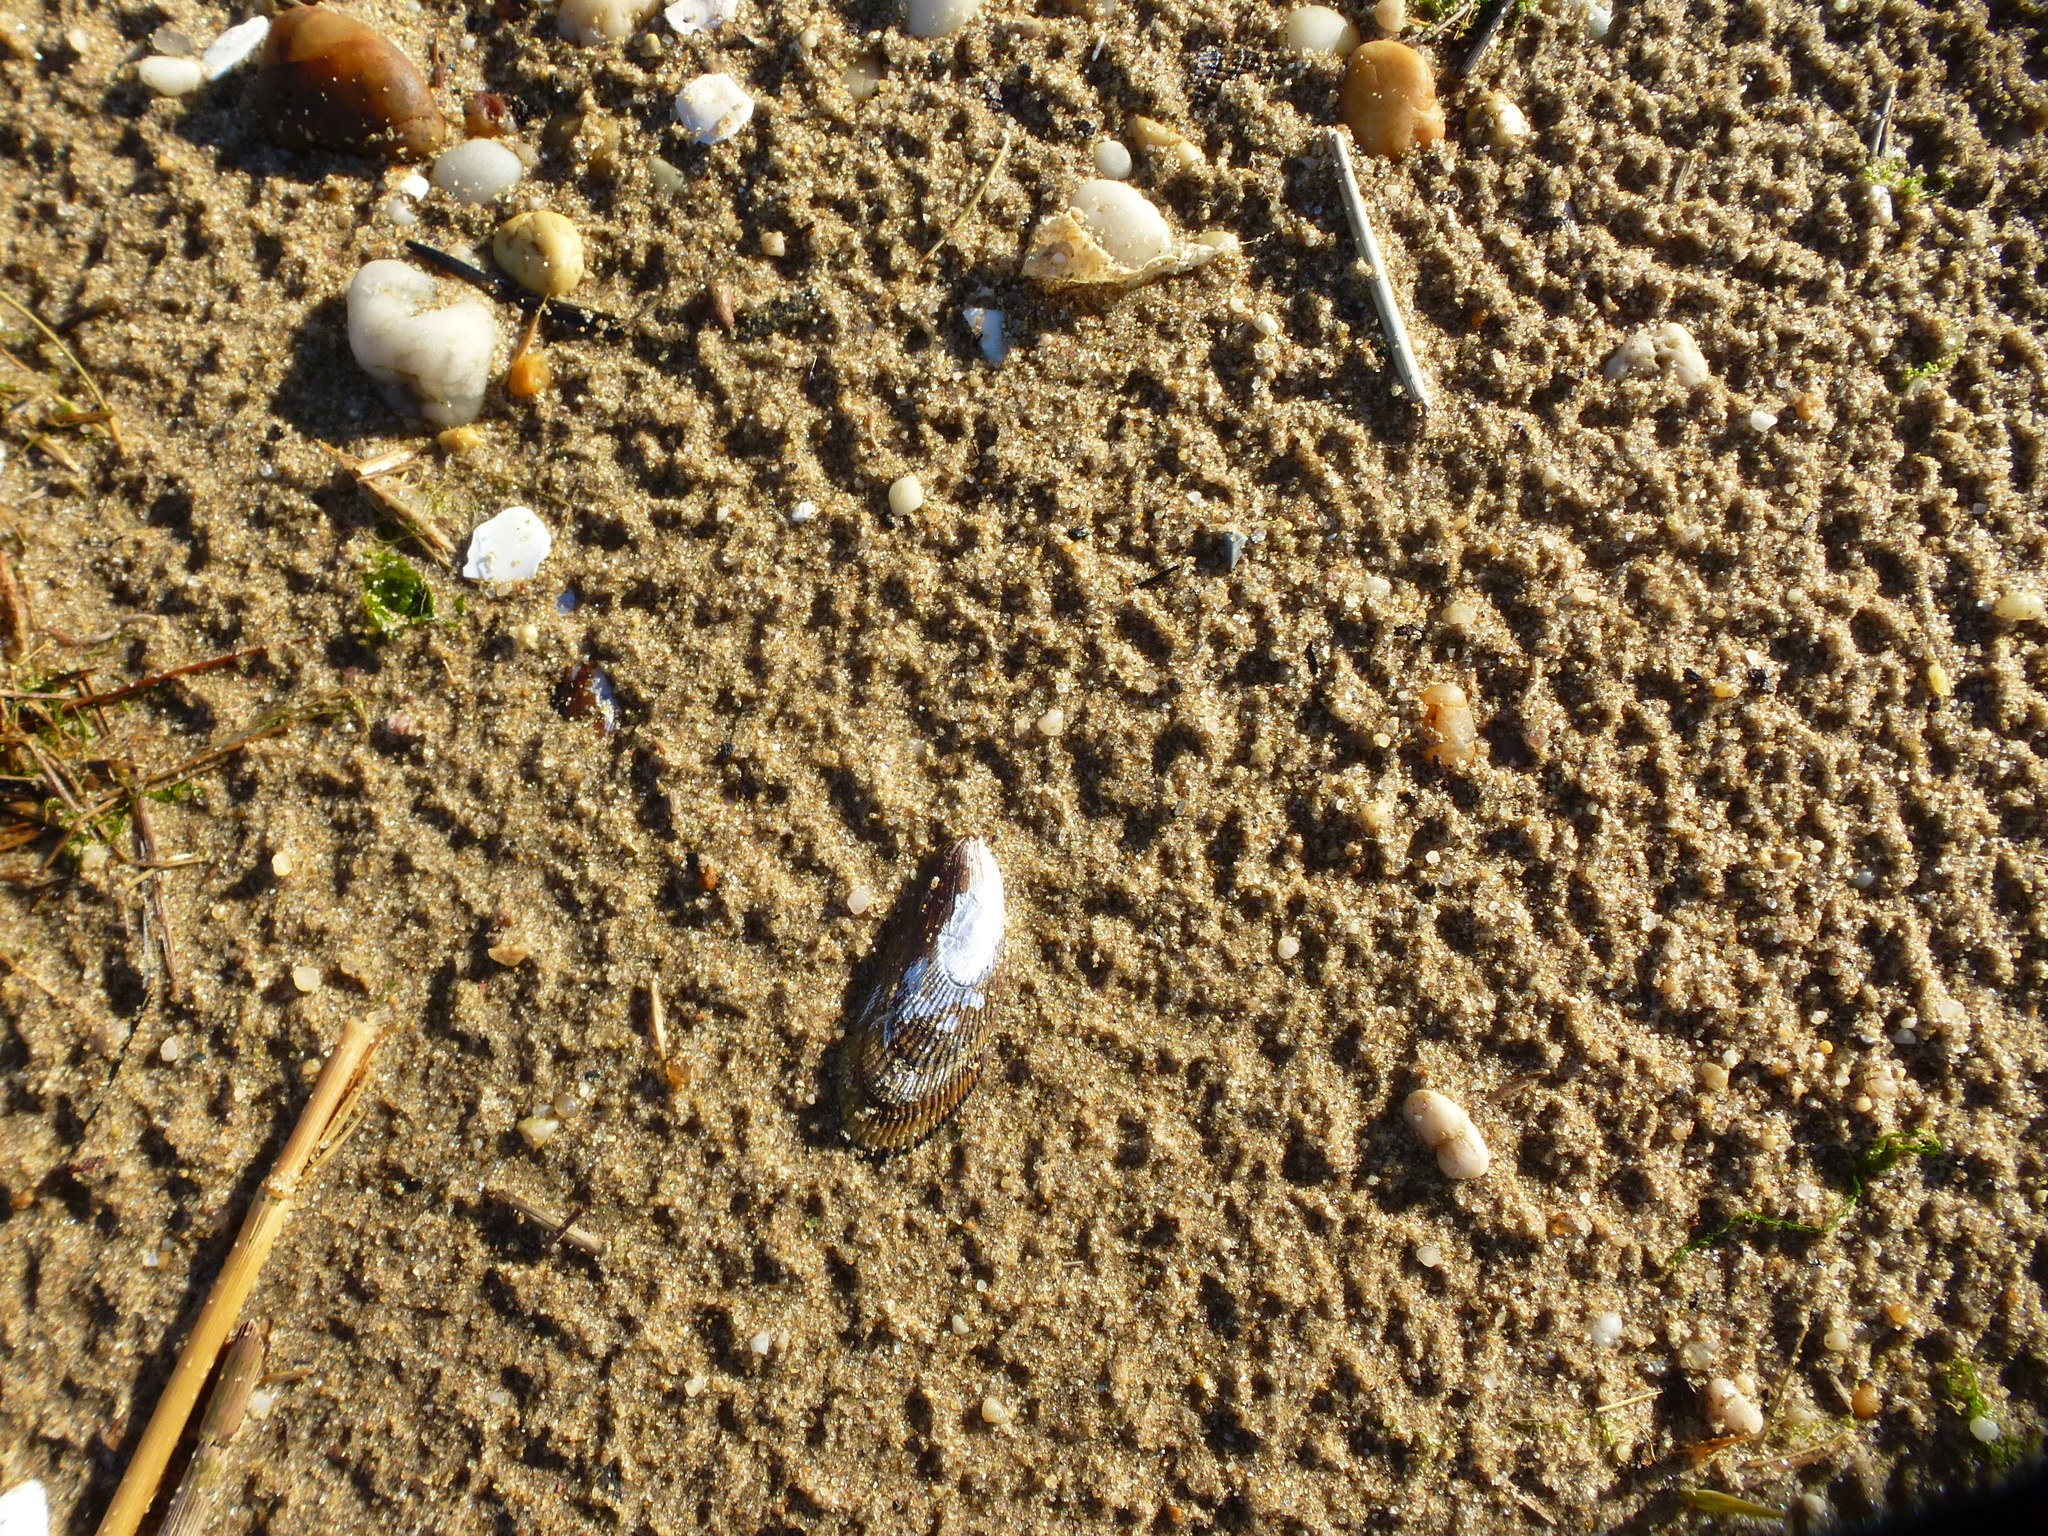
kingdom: Animalia
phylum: Mollusca
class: Bivalvia
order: Mytilida
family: Mytilidae
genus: Geukensia
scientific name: Geukensia demissa
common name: Ribbed mussel
